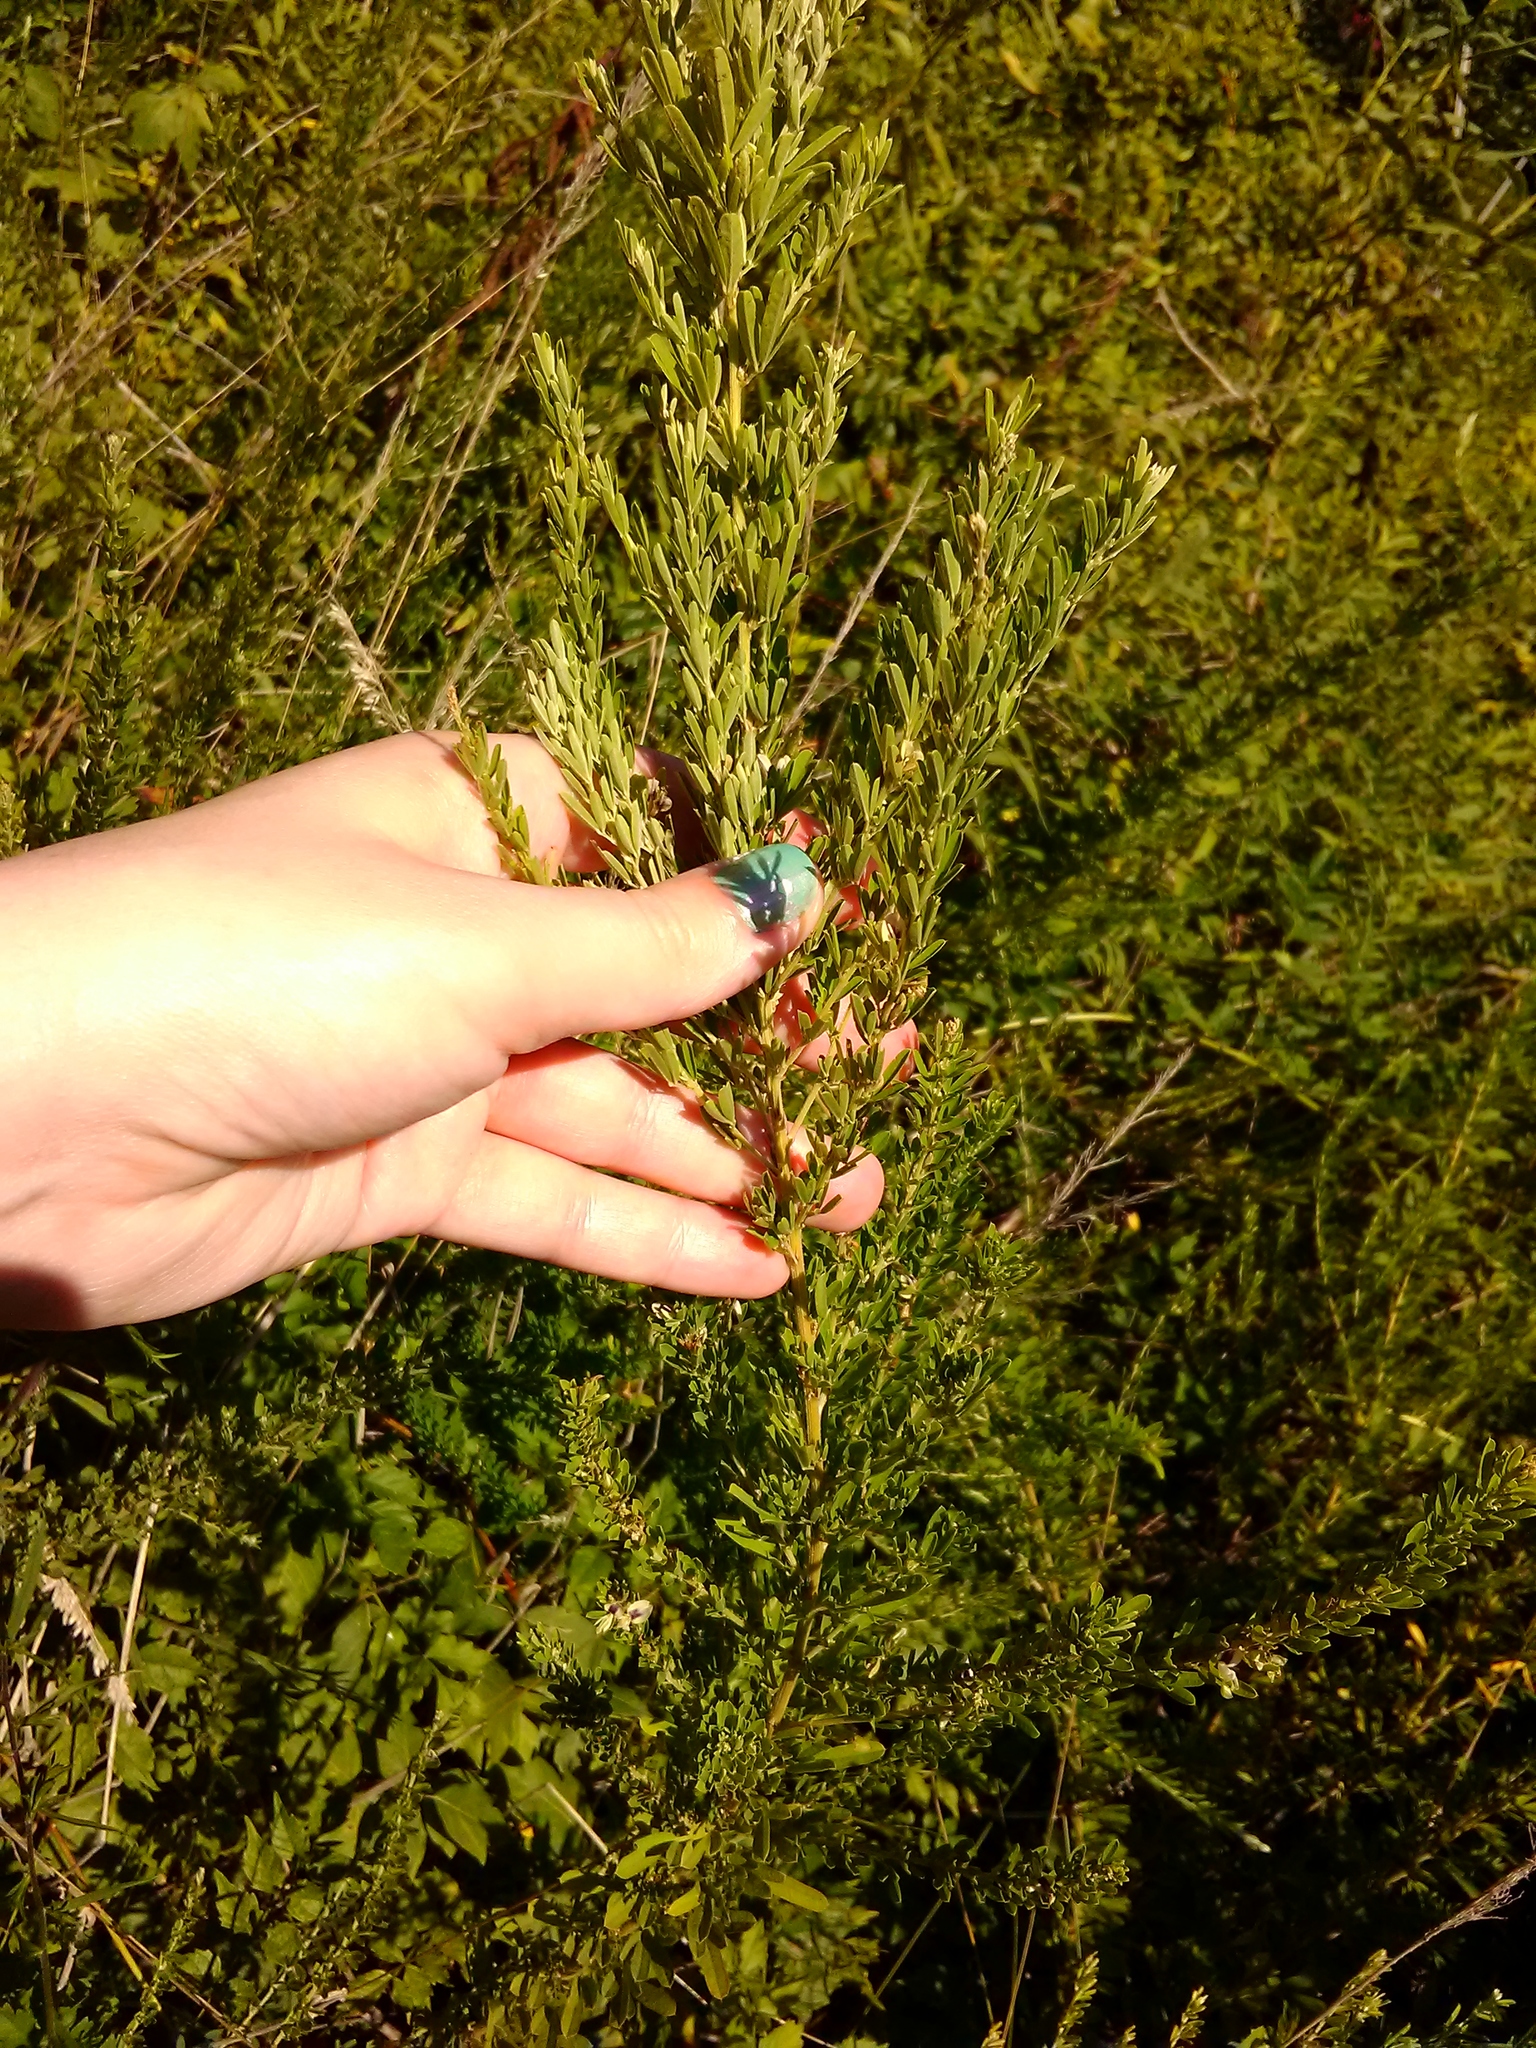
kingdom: Plantae
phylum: Tracheophyta
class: Magnoliopsida
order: Fabales
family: Fabaceae
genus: Lespedeza
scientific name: Lespedeza cuneata
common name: Chinese bush-clover
